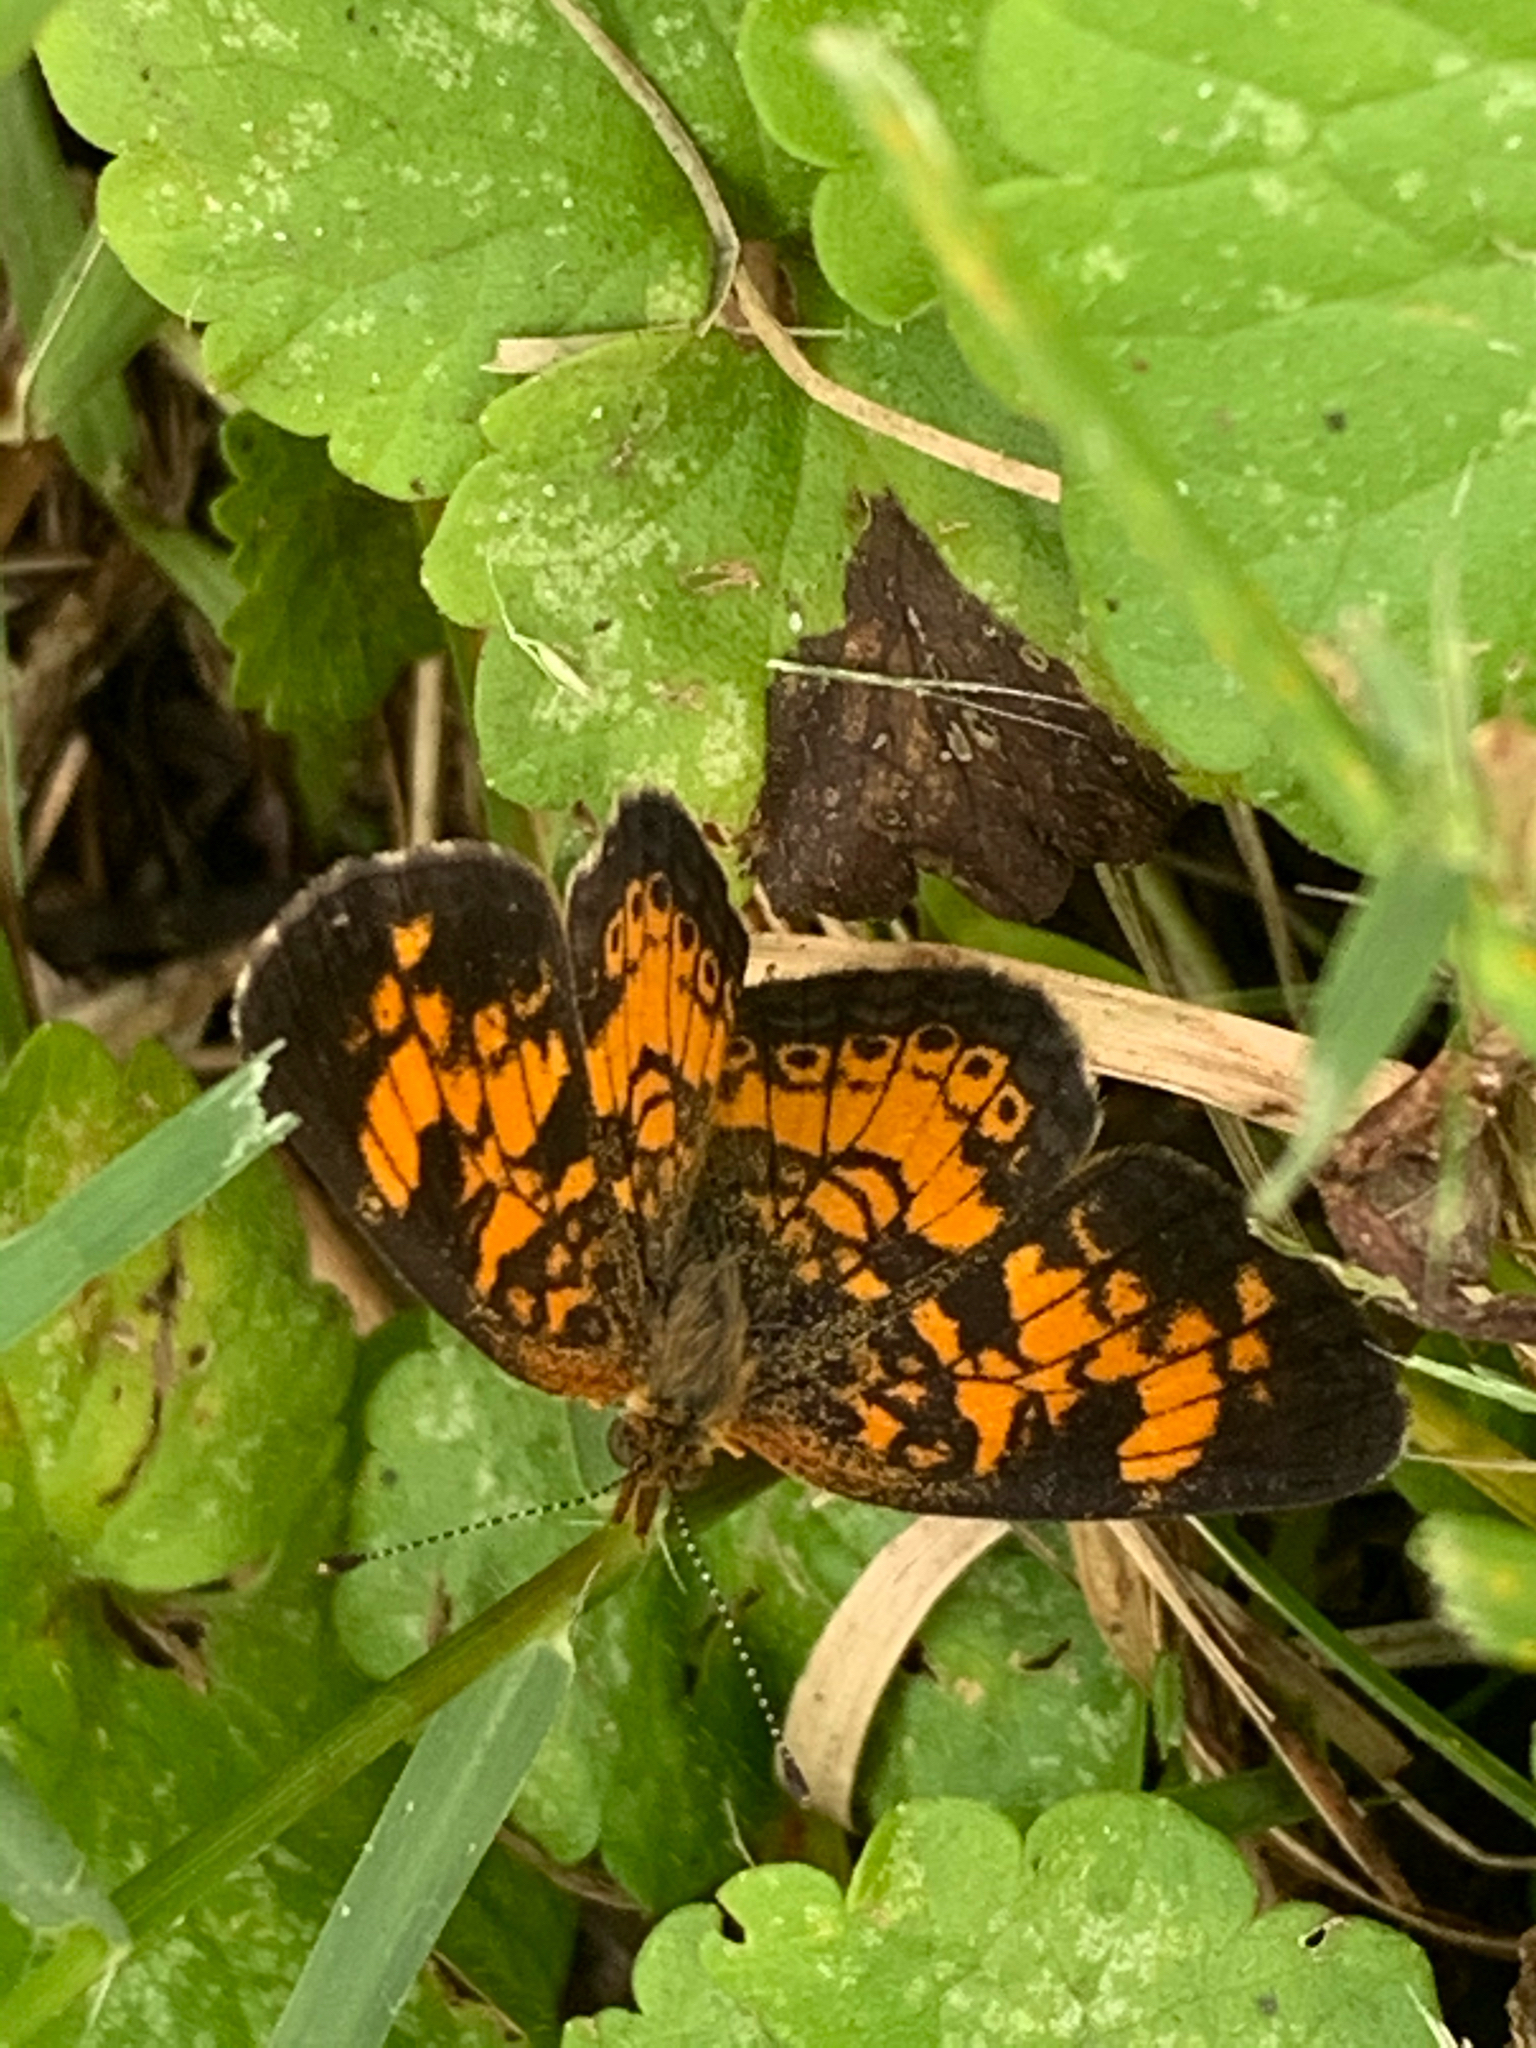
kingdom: Animalia
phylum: Arthropoda
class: Insecta
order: Lepidoptera
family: Nymphalidae
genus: Phyciodes
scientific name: Phyciodes tharos
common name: Pearl crescent
